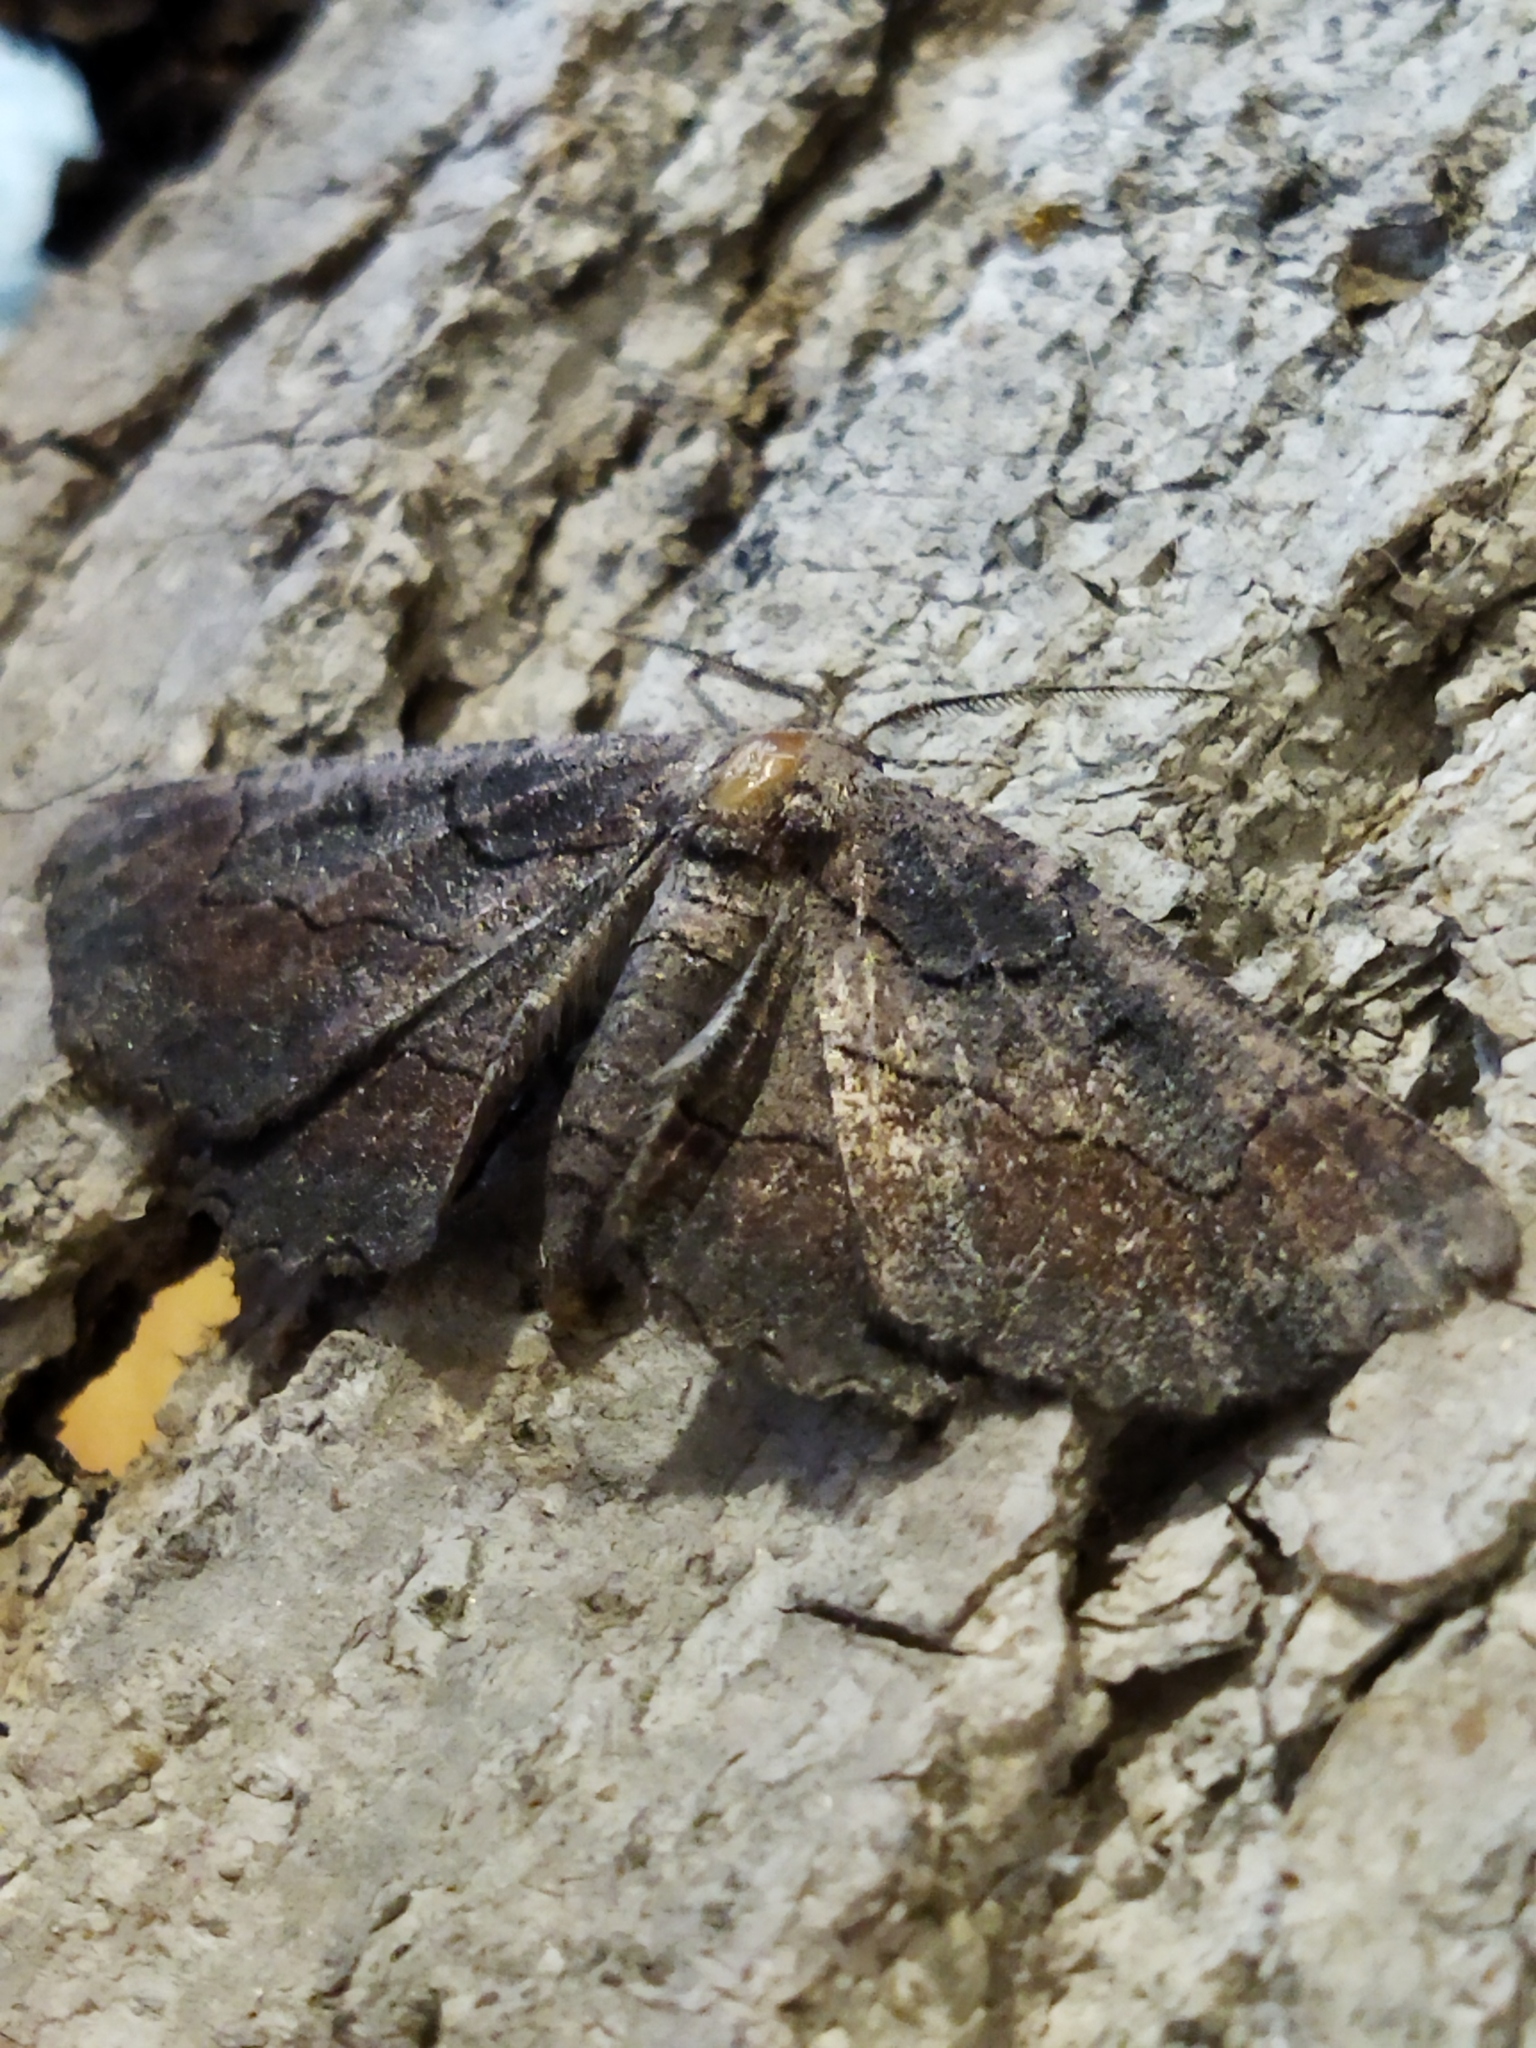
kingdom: Animalia
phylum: Arthropoda
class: Insecta
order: Lepidoptera
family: Geometridae
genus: Nychiodes
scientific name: Nychiodes waltheri
